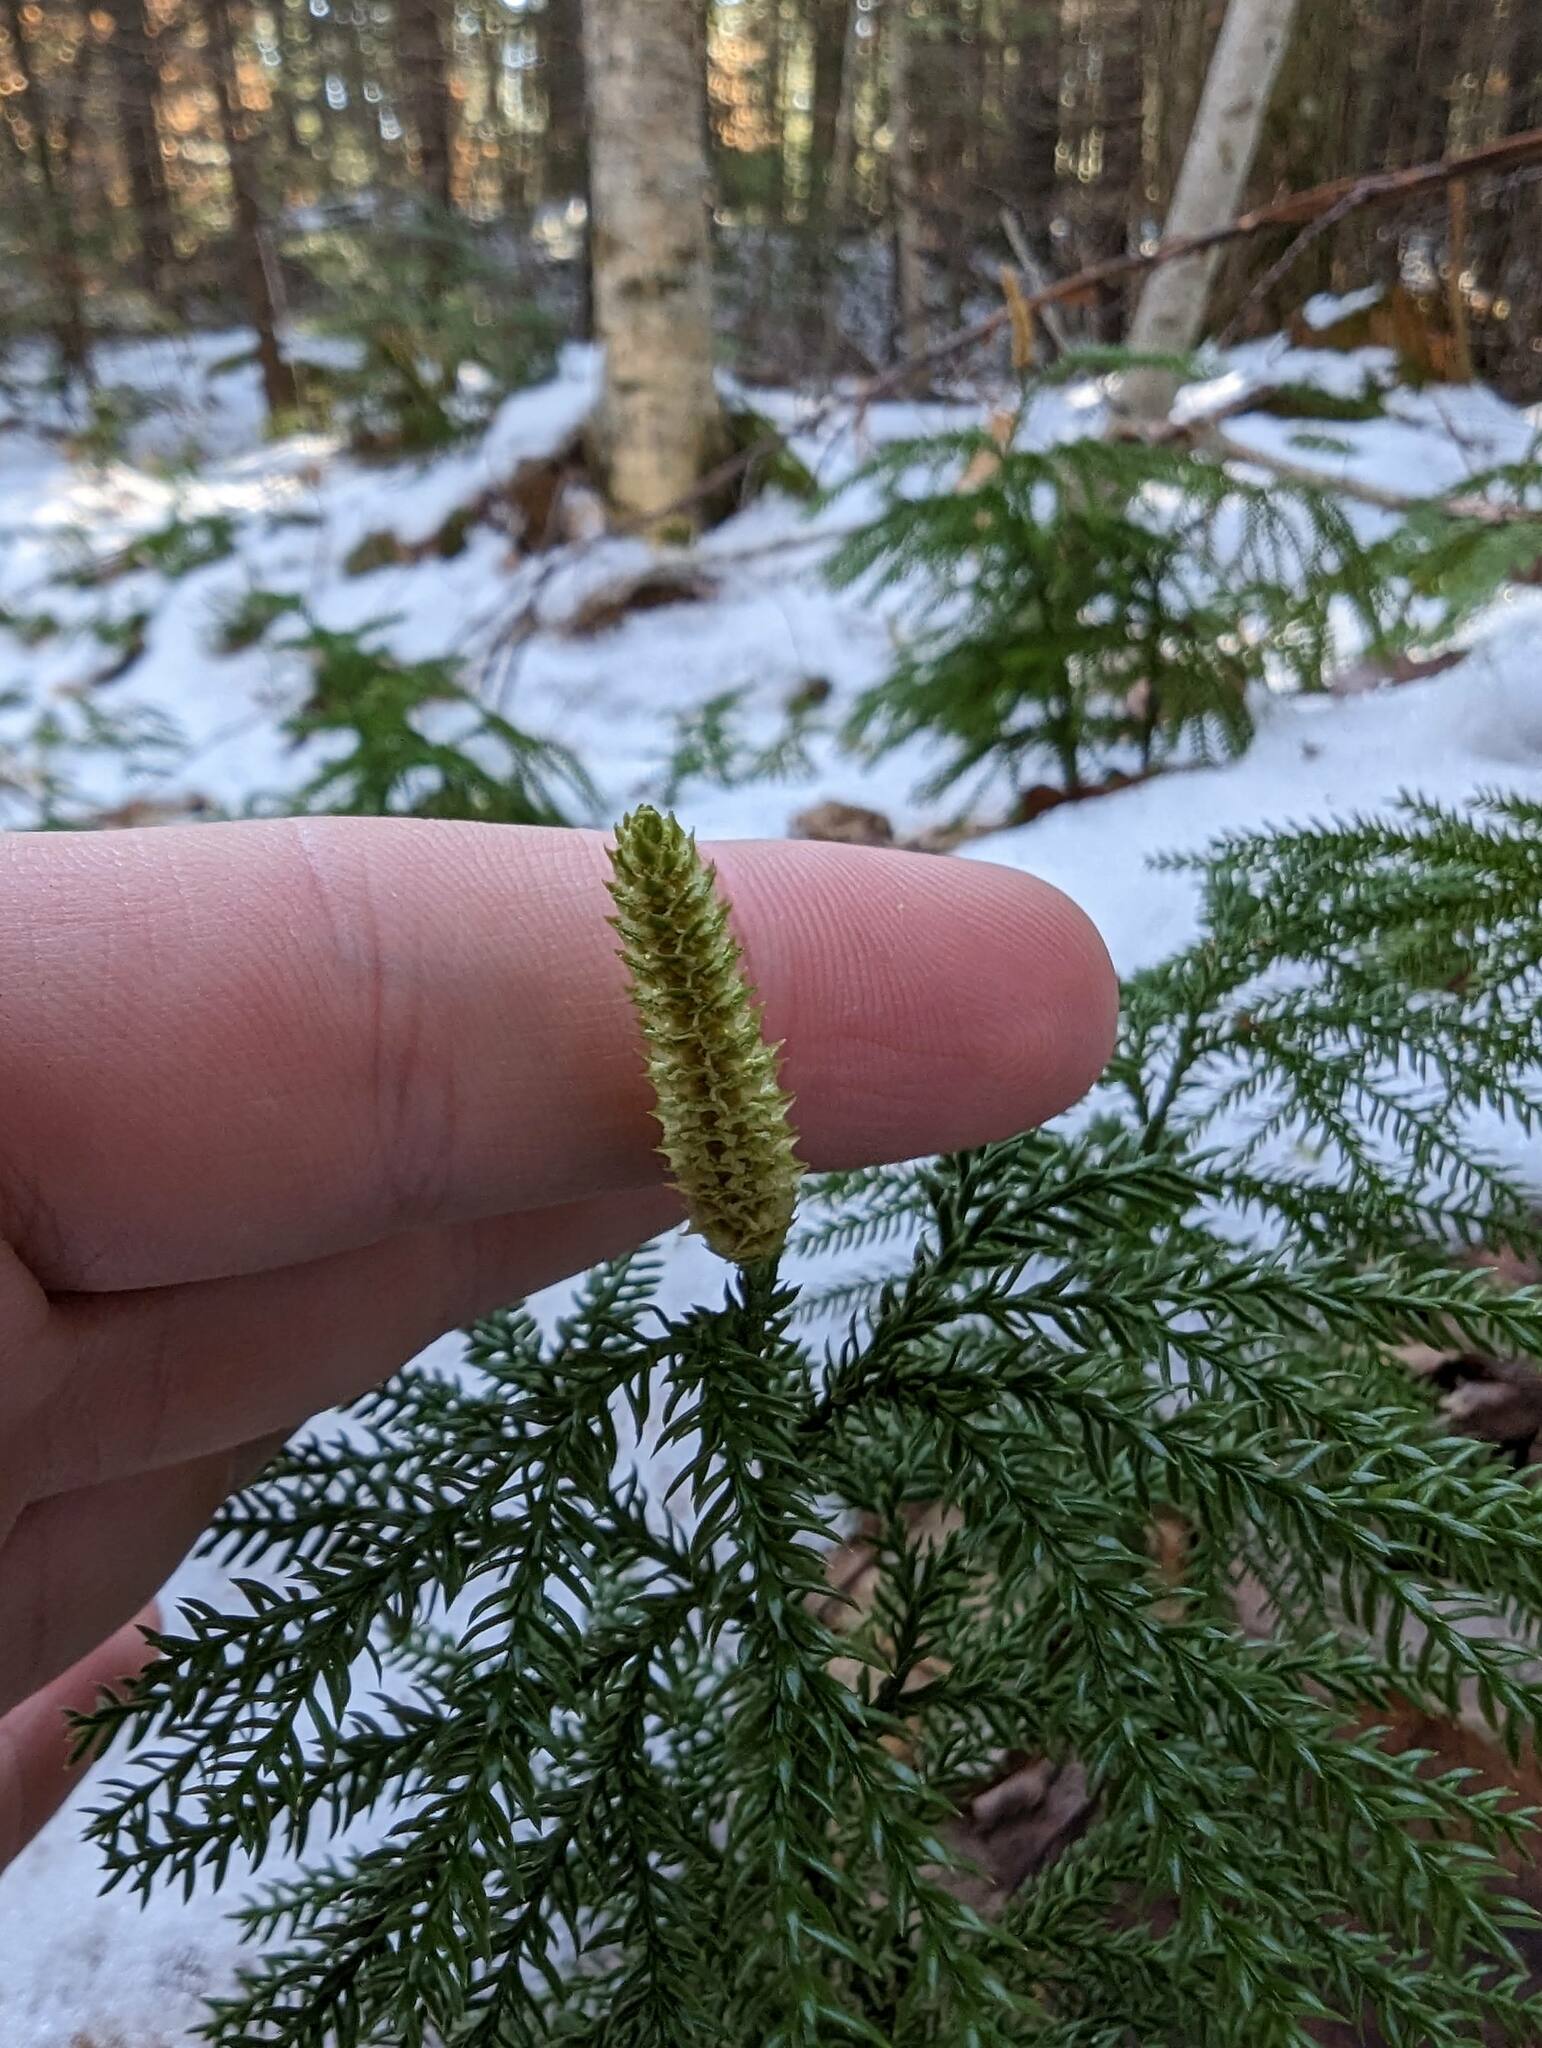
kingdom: Plantae
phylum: Tracheophyta
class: Lycopodiopsida
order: Lycopodiales
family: Lycopodiaceae
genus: Dendrolycopodium
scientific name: Dendrolycopodium dendroideum
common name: Northern tree-clubmoss
